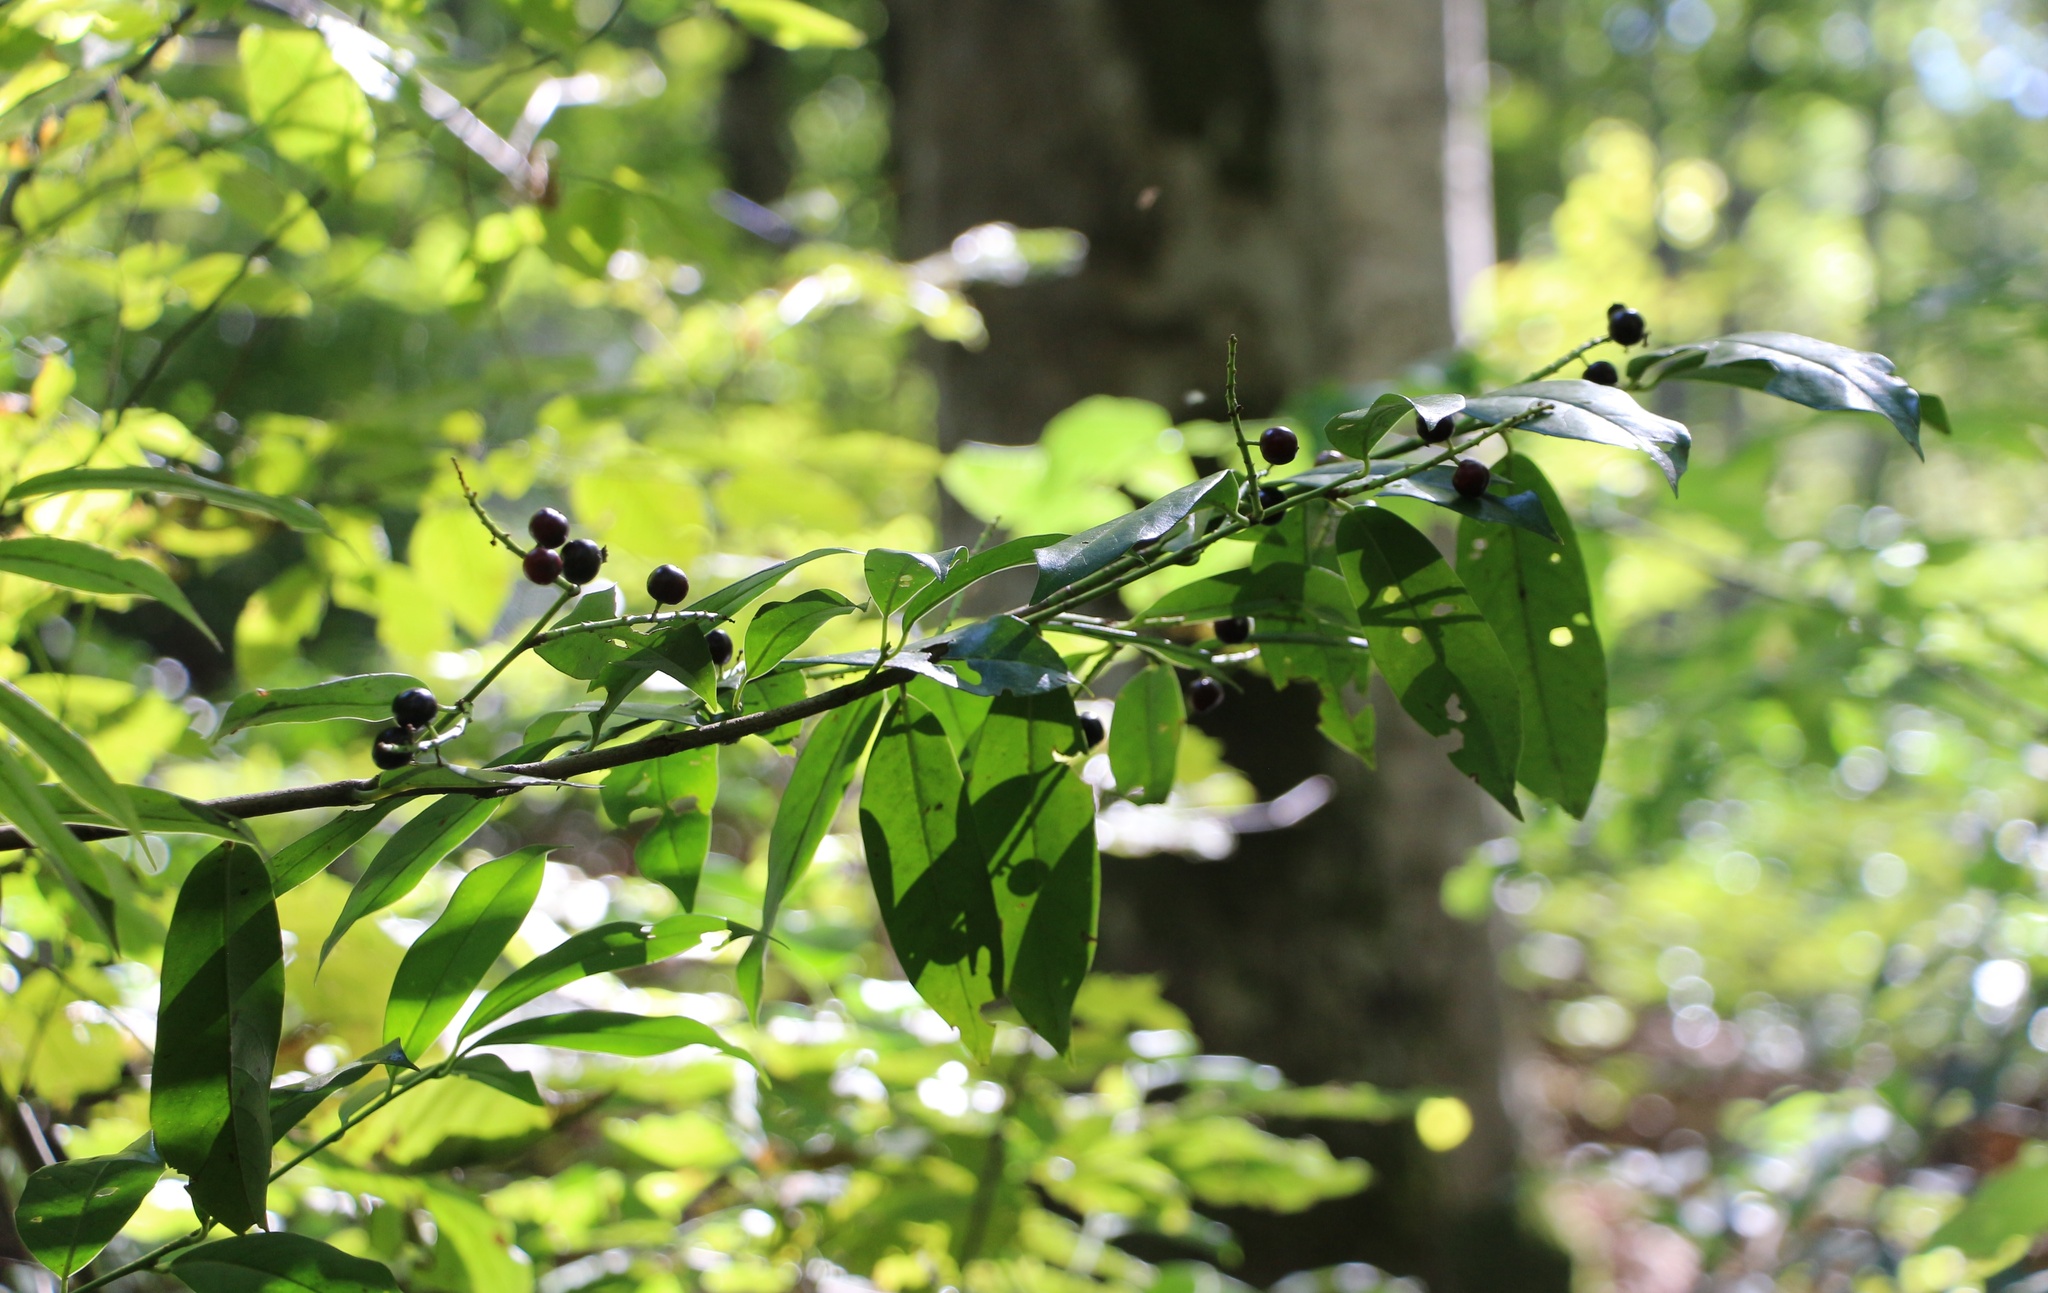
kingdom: Plantae
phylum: Tracheophyta
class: Magnoliopsida
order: Rosales
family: Rosaceae
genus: Prunus
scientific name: Prunus laurocerasus
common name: Cherry laurel
